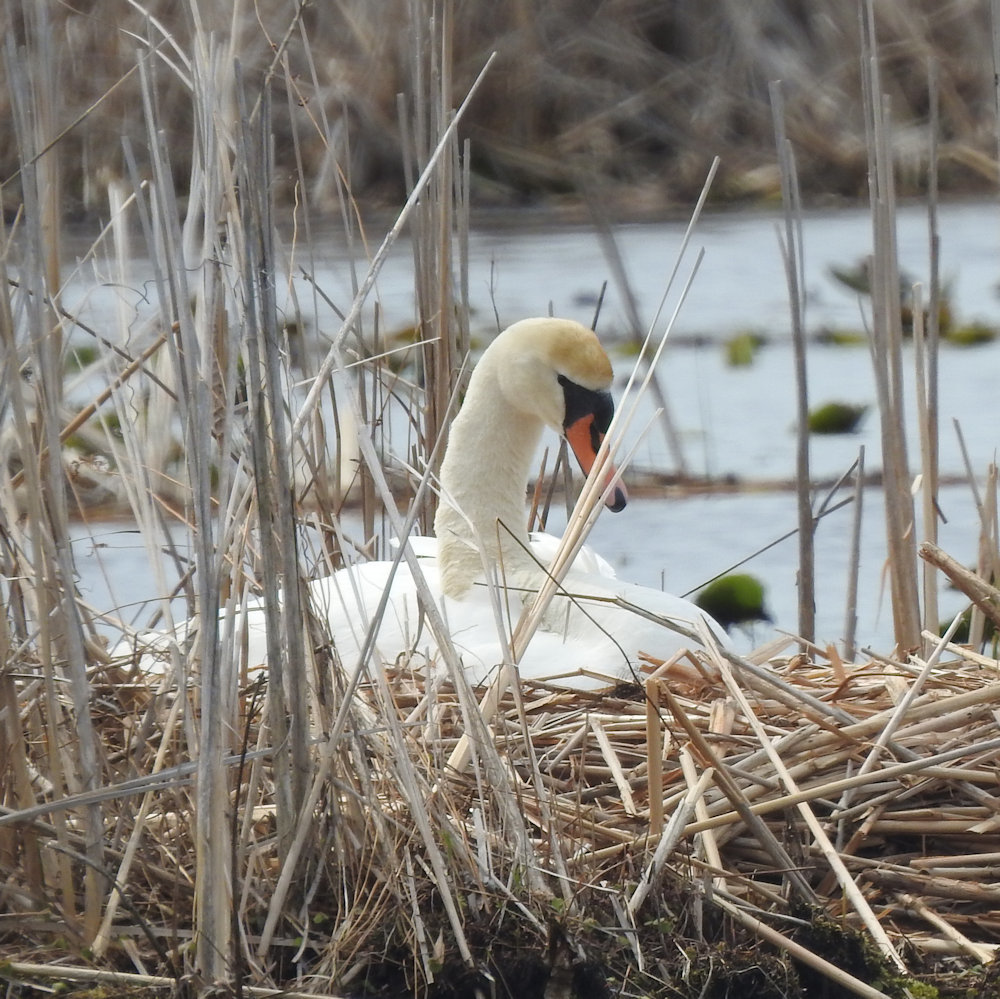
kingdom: Animalia
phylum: Chordata
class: Aves
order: Anseriformes
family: Anatidae
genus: Cygnus
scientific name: Cygnus olor
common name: Mute swan
